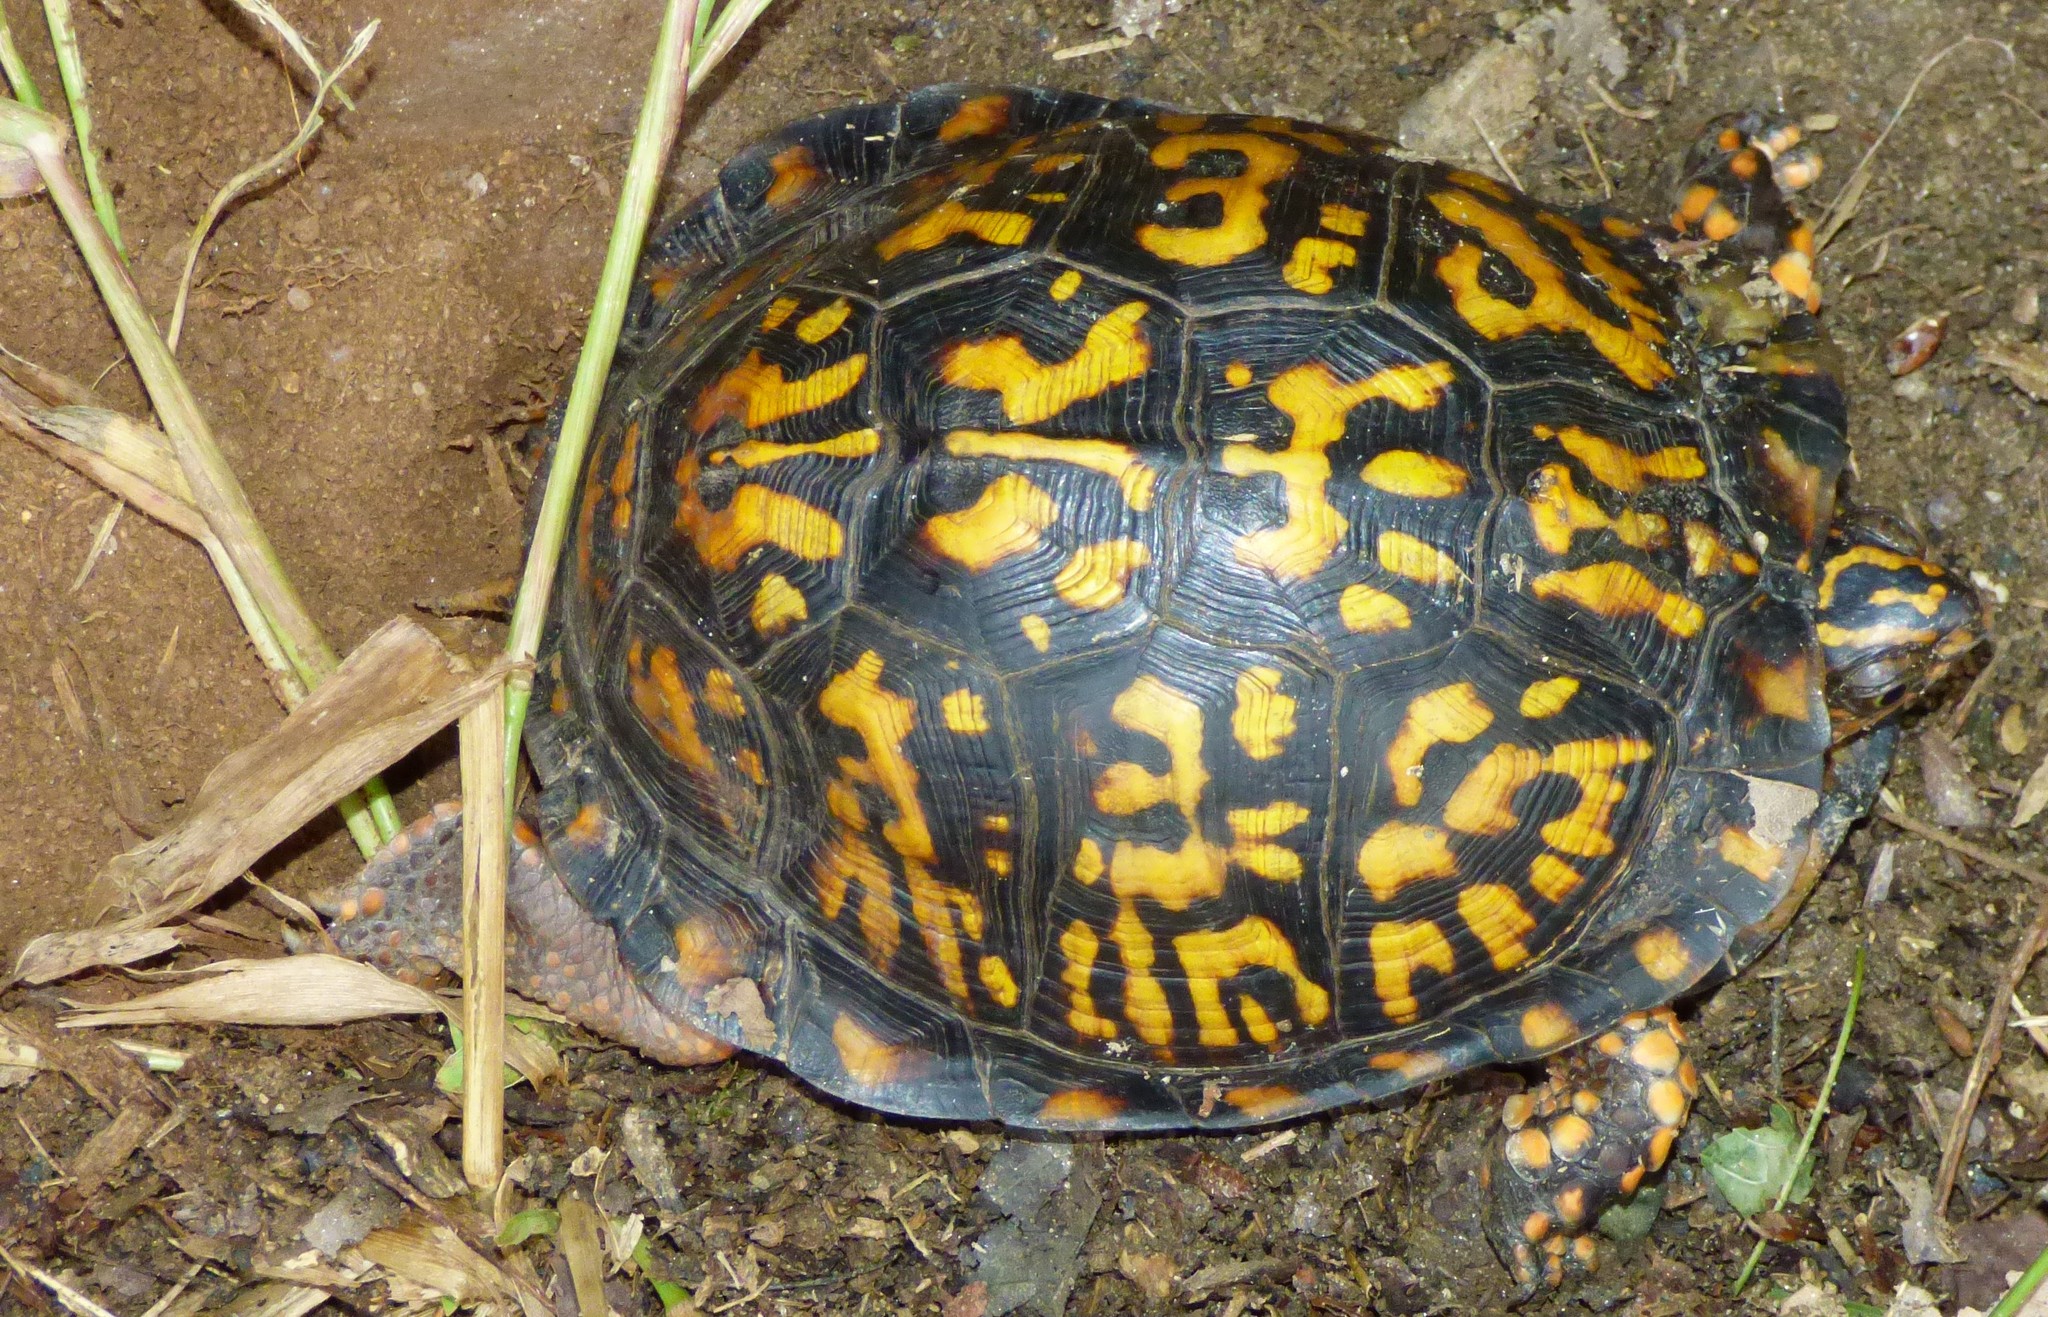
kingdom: Animalia
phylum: Chordata
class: Testudines
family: Emydidae
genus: Terrapene
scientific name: Terrapene carolina
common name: Common box turtle
